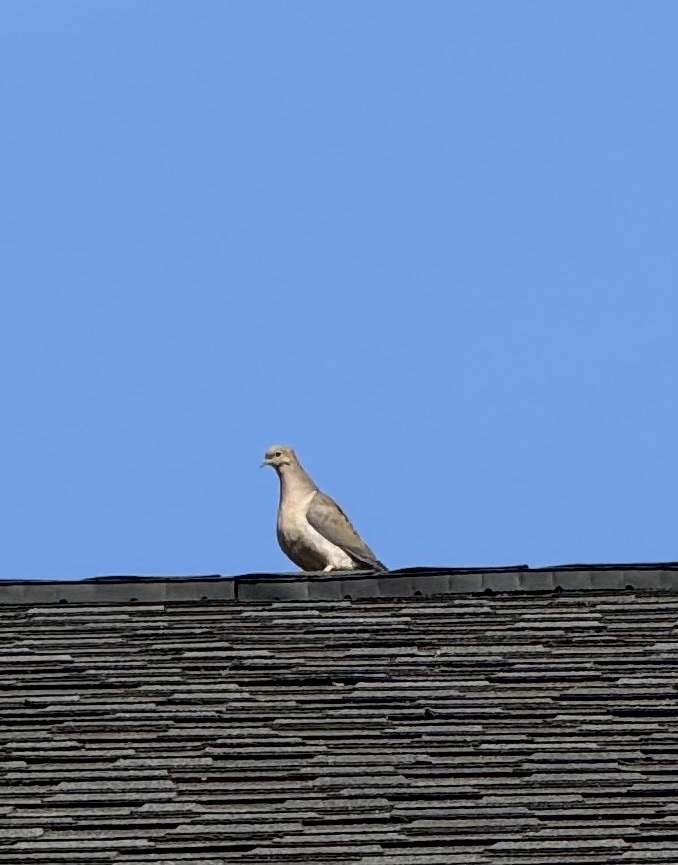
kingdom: Animalia
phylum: Chordata
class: Aves
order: Columbiformes
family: Columbidae
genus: Zenaida
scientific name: Zenaida macroura
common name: Mourning dove
